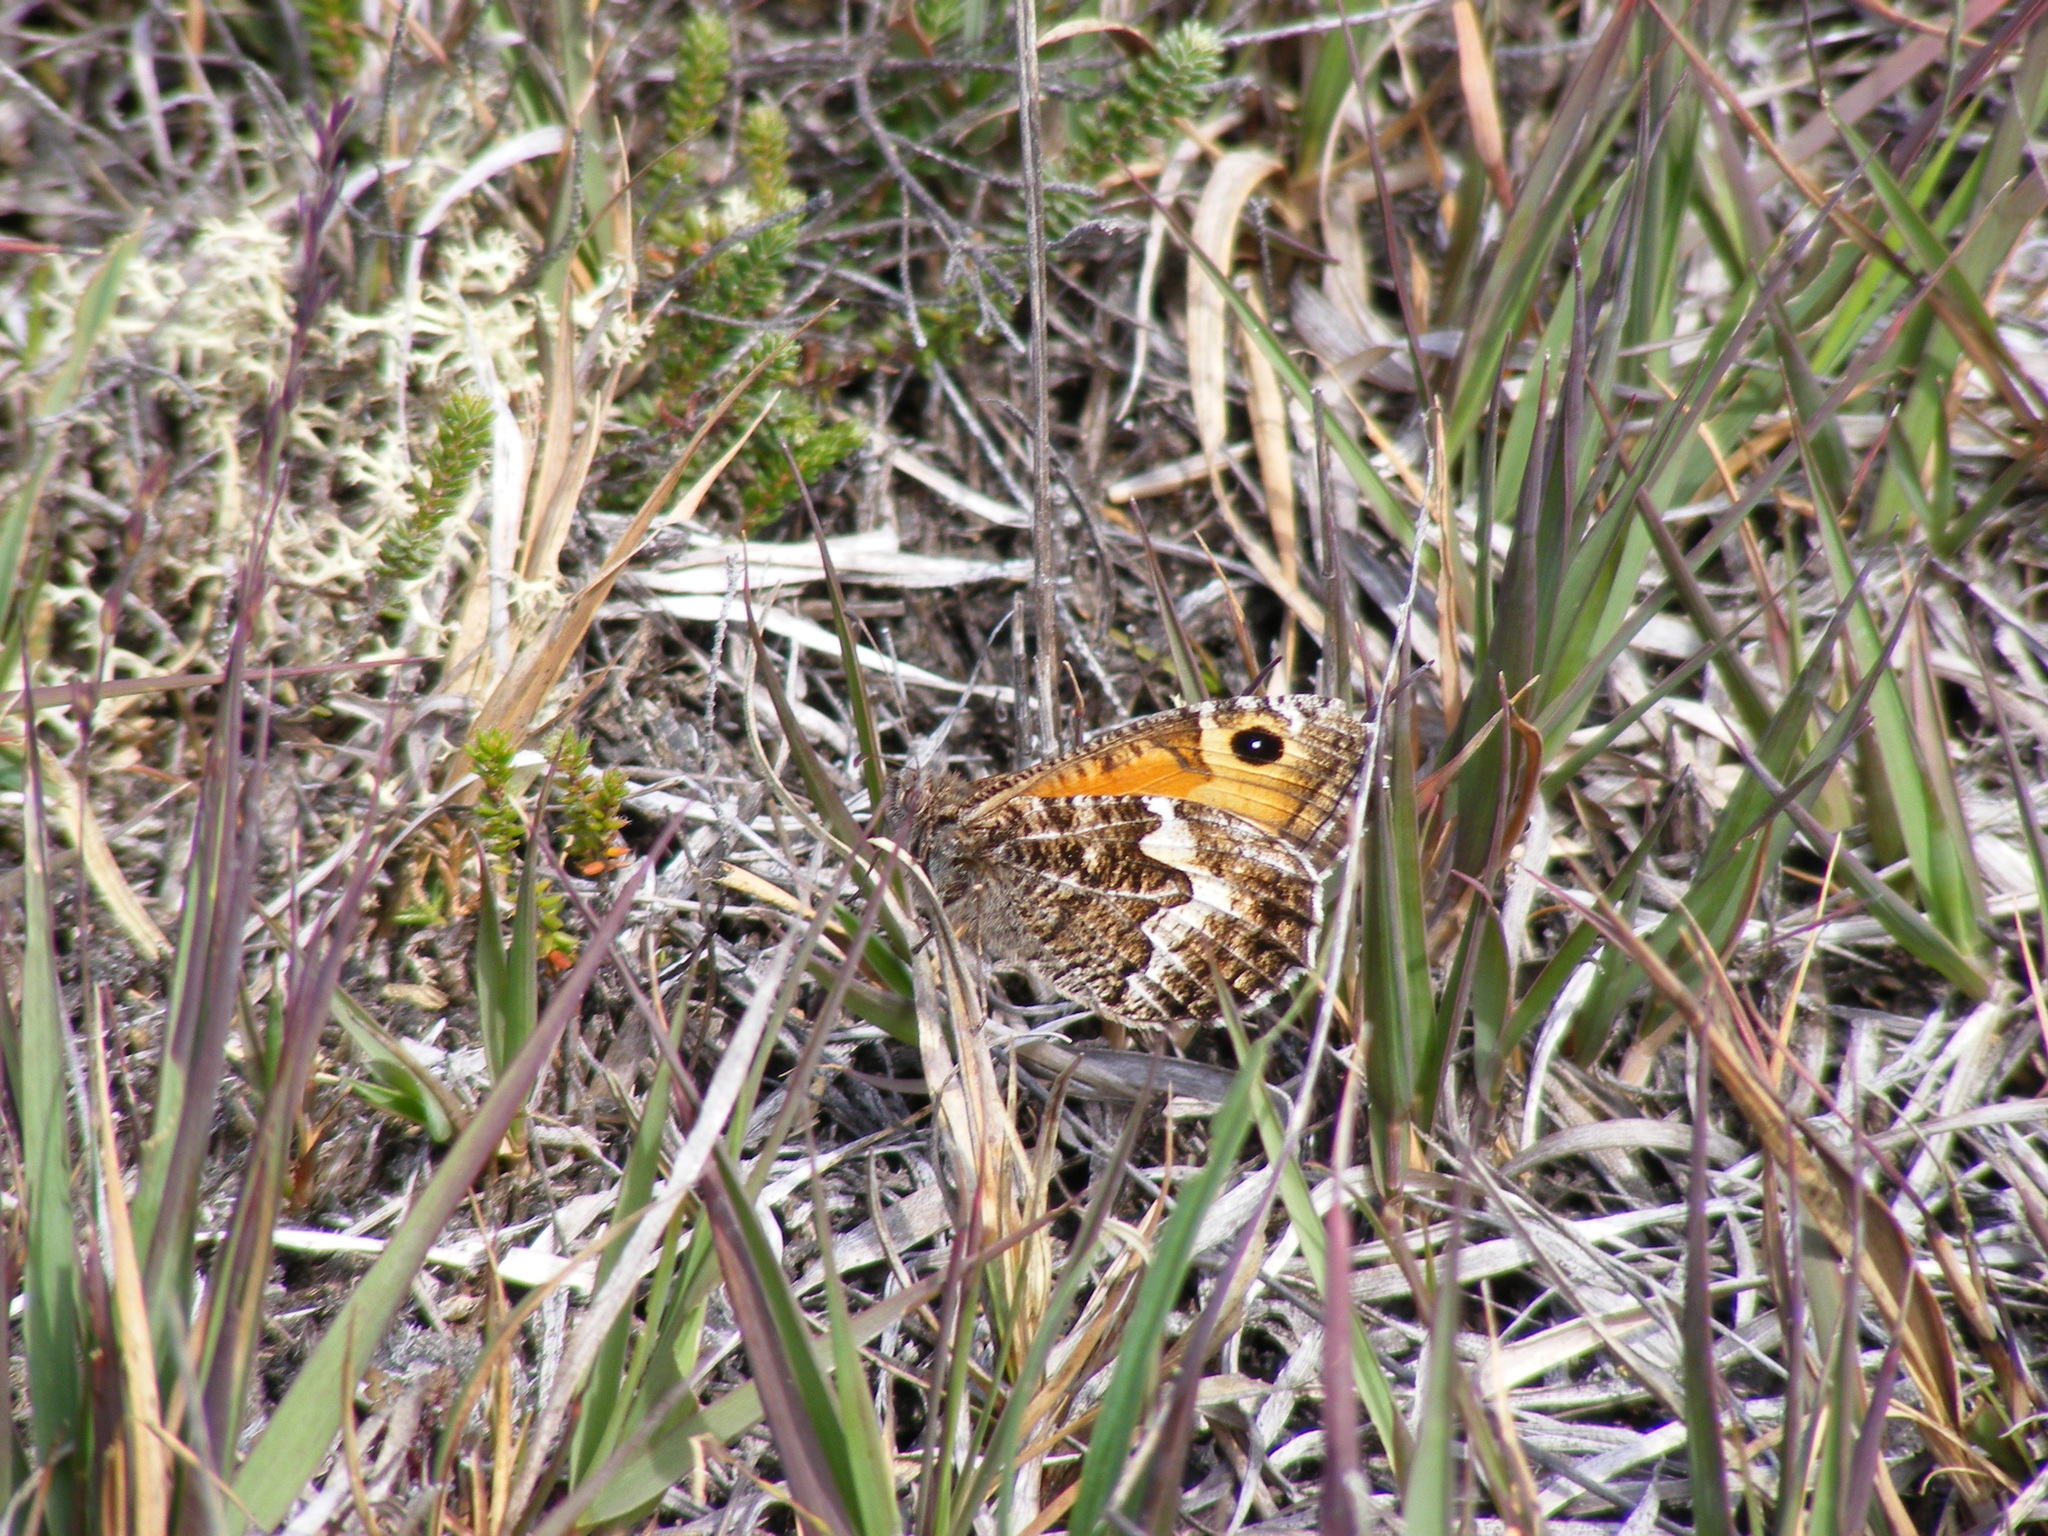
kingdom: Animalia
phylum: Arthropoda
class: Insecta
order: Lepidoptera
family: Nymphalidae
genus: Hipparchia
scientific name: Hipparchia semele
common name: Grayling
